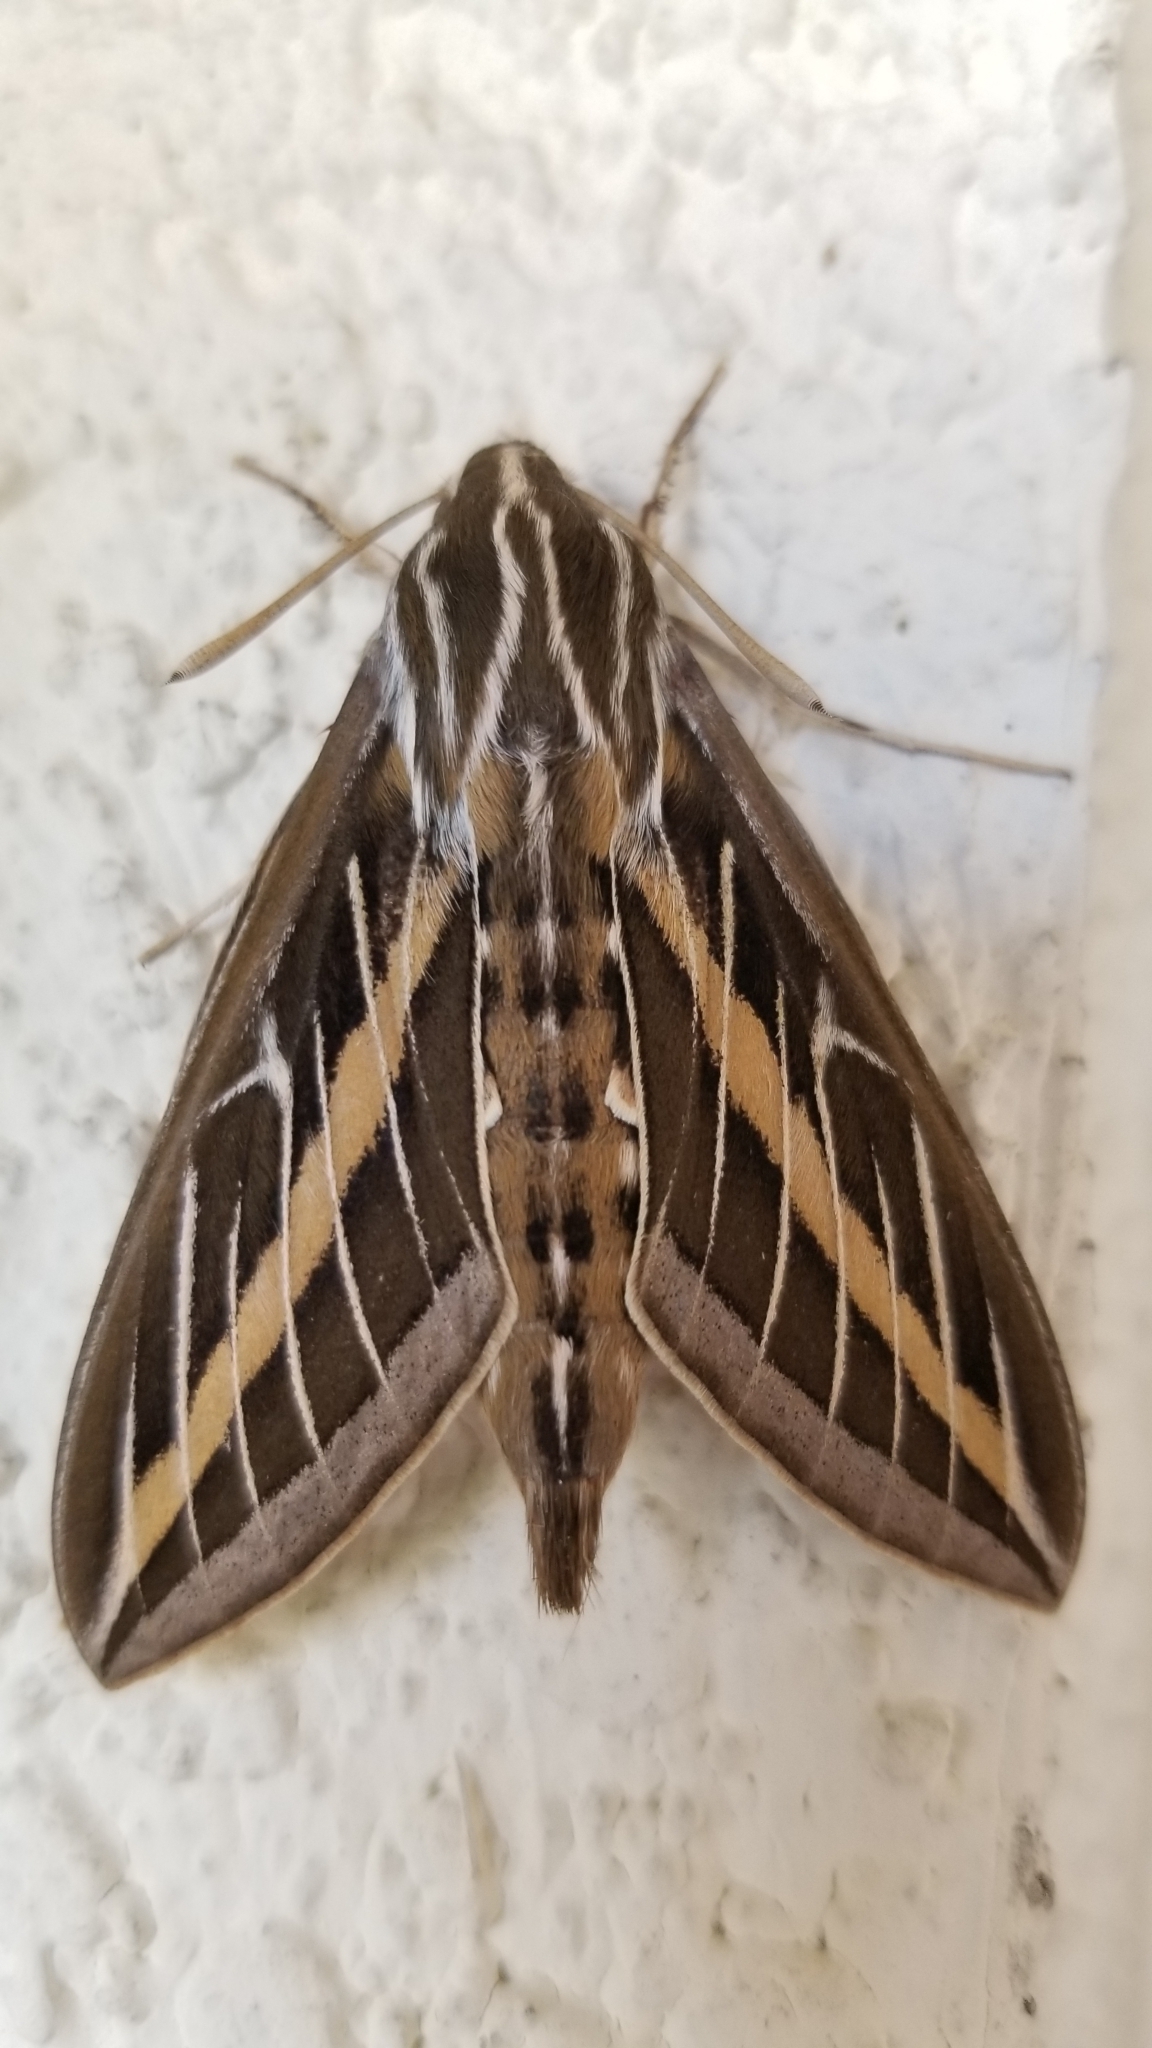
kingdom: Animalia
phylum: Arthropoda
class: Insecta
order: Lepidoptera
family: Sphingidae
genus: Hyles
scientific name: Hyles lineata
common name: White-lined sphinx
